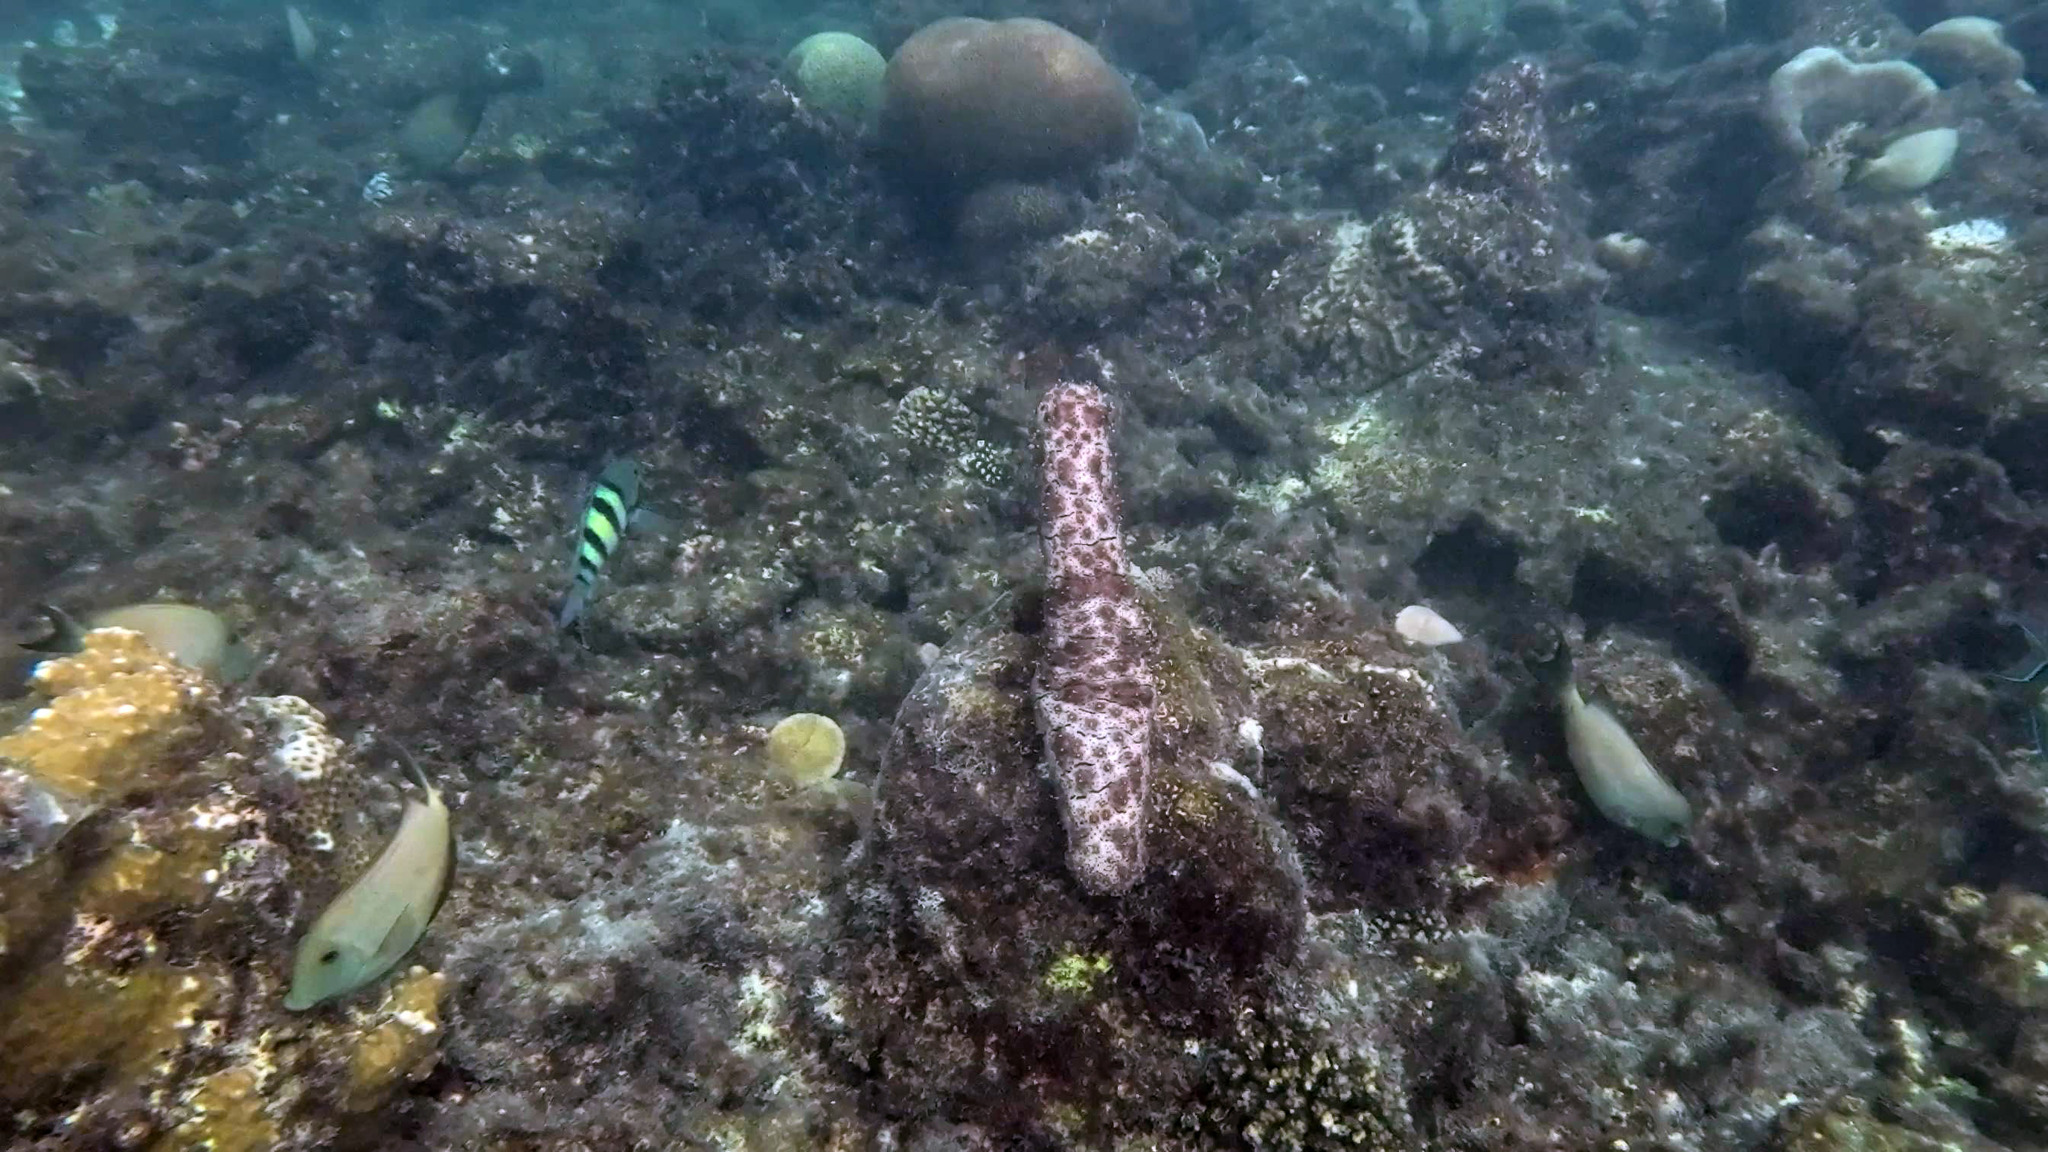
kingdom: Animalia
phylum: Echinodermata
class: Holothuroidea
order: Holothuriida
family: Holothuriidae
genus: Pearsonothuria
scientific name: Pearsonothuria graeffei
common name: Blackspotted sea cucumber
